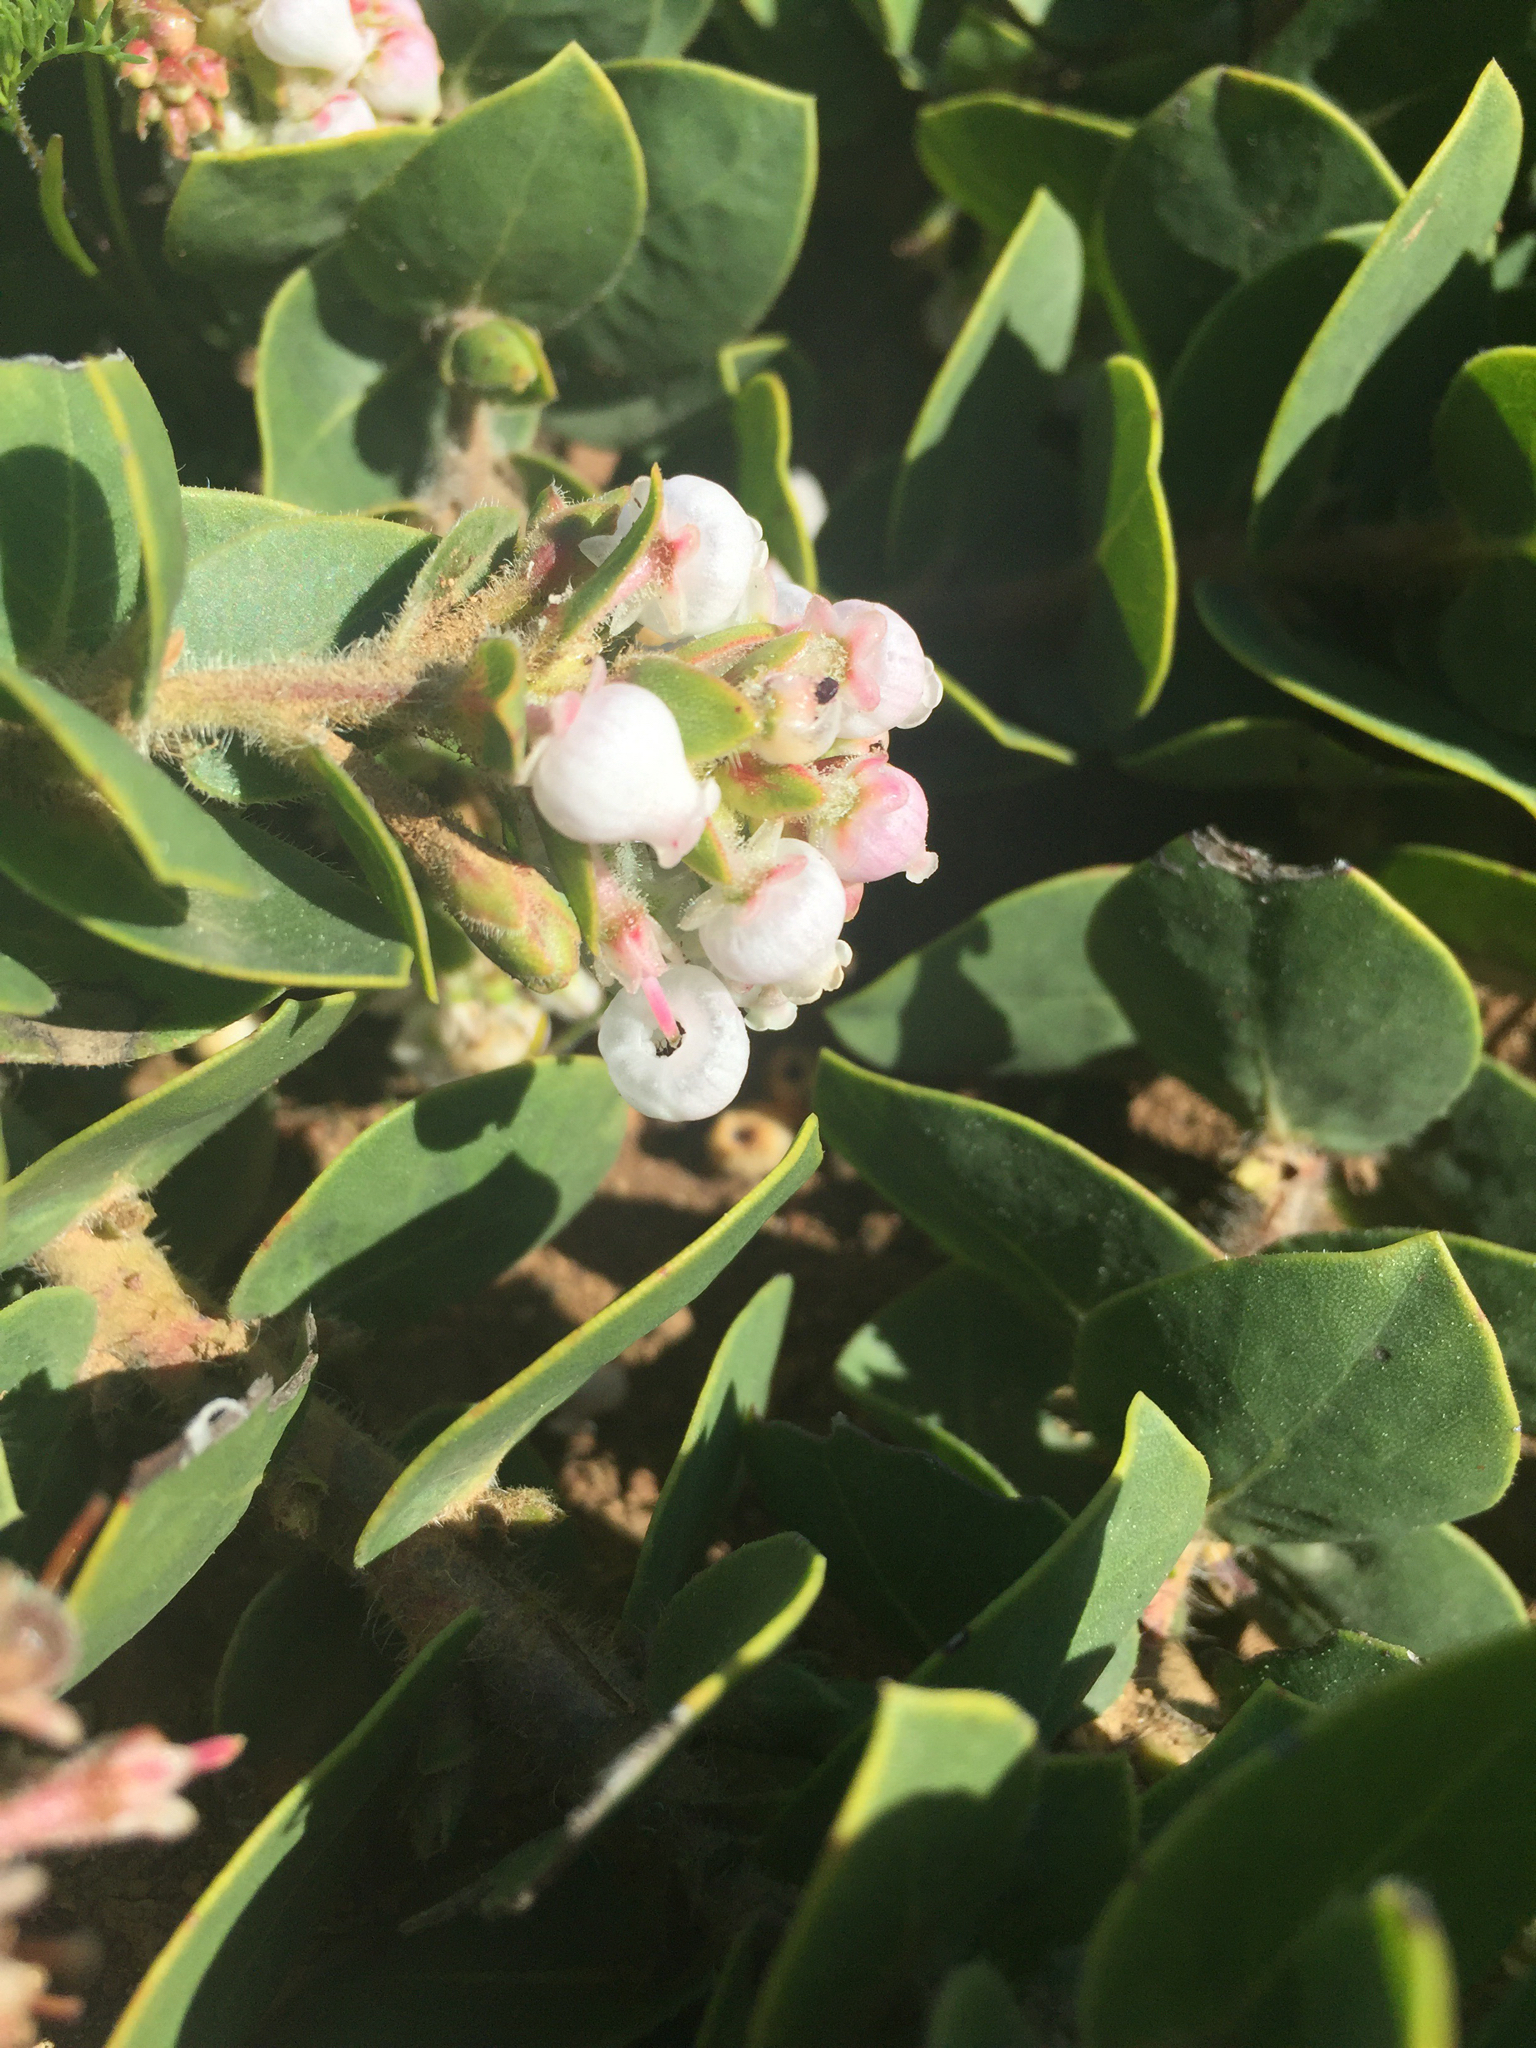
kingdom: Plantae
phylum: Tracheophyta
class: Magnoliopsida
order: Ericales
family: Ericaceae
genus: Arctostaphylos
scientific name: Arctostaphylos imbricata
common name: San bruno mountain manzanita
